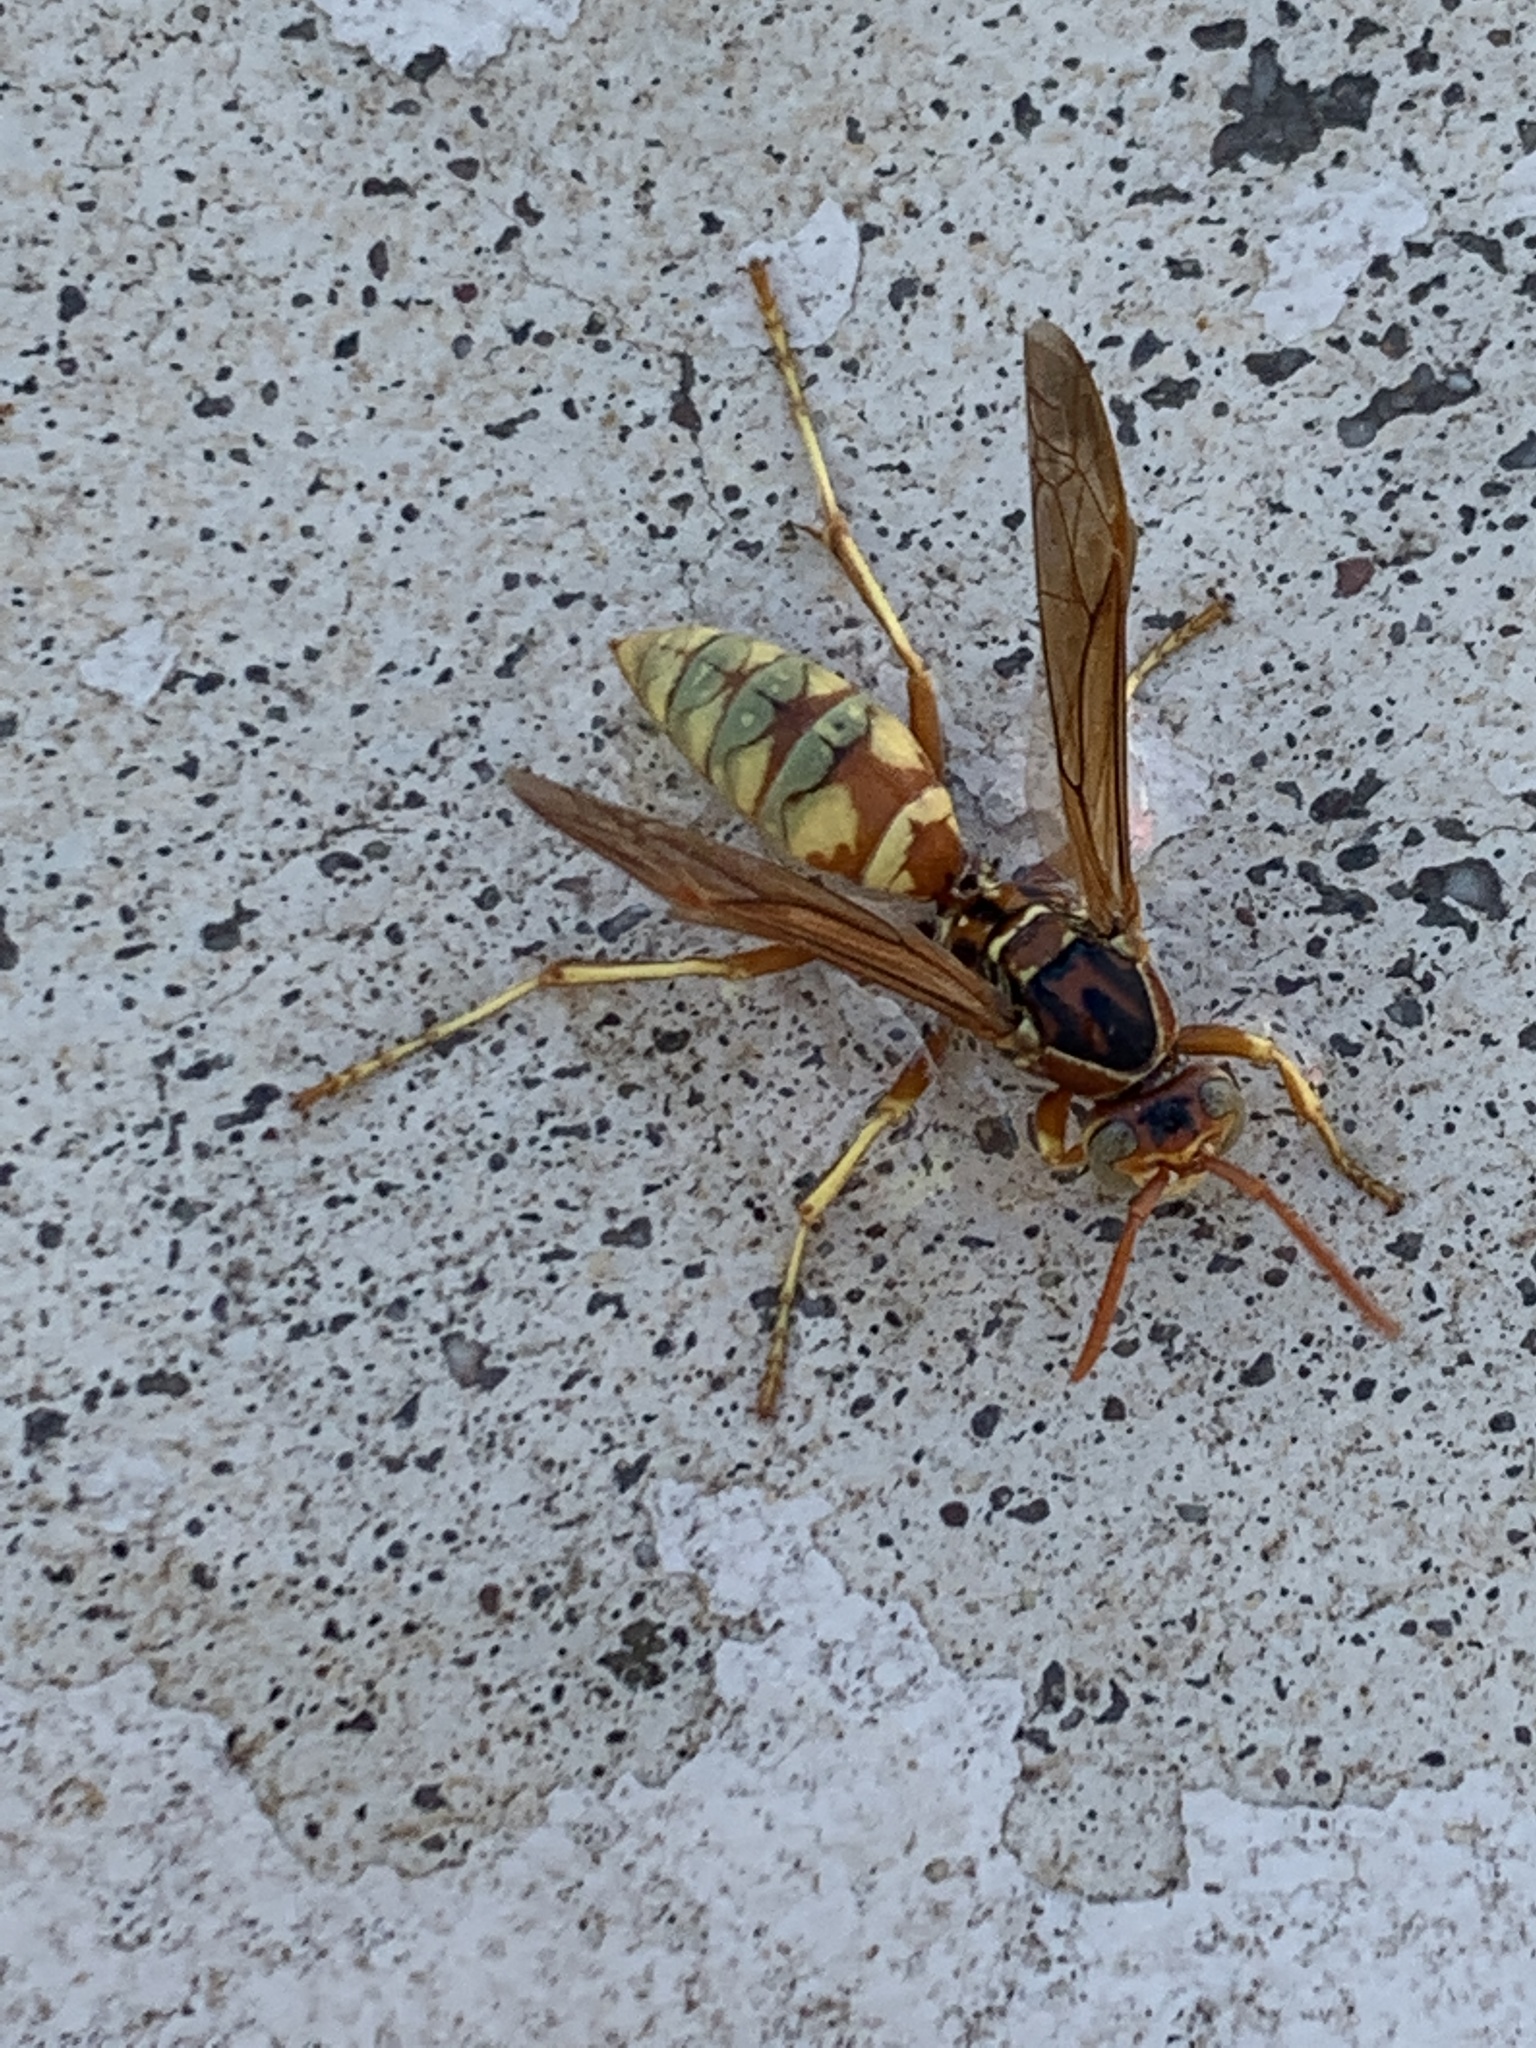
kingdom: Animalia
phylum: Arthropoda
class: Insecta
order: Hymenoptera
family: Eumenidae
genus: Polistes
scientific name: Polistes aurifer
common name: Paper wasp
